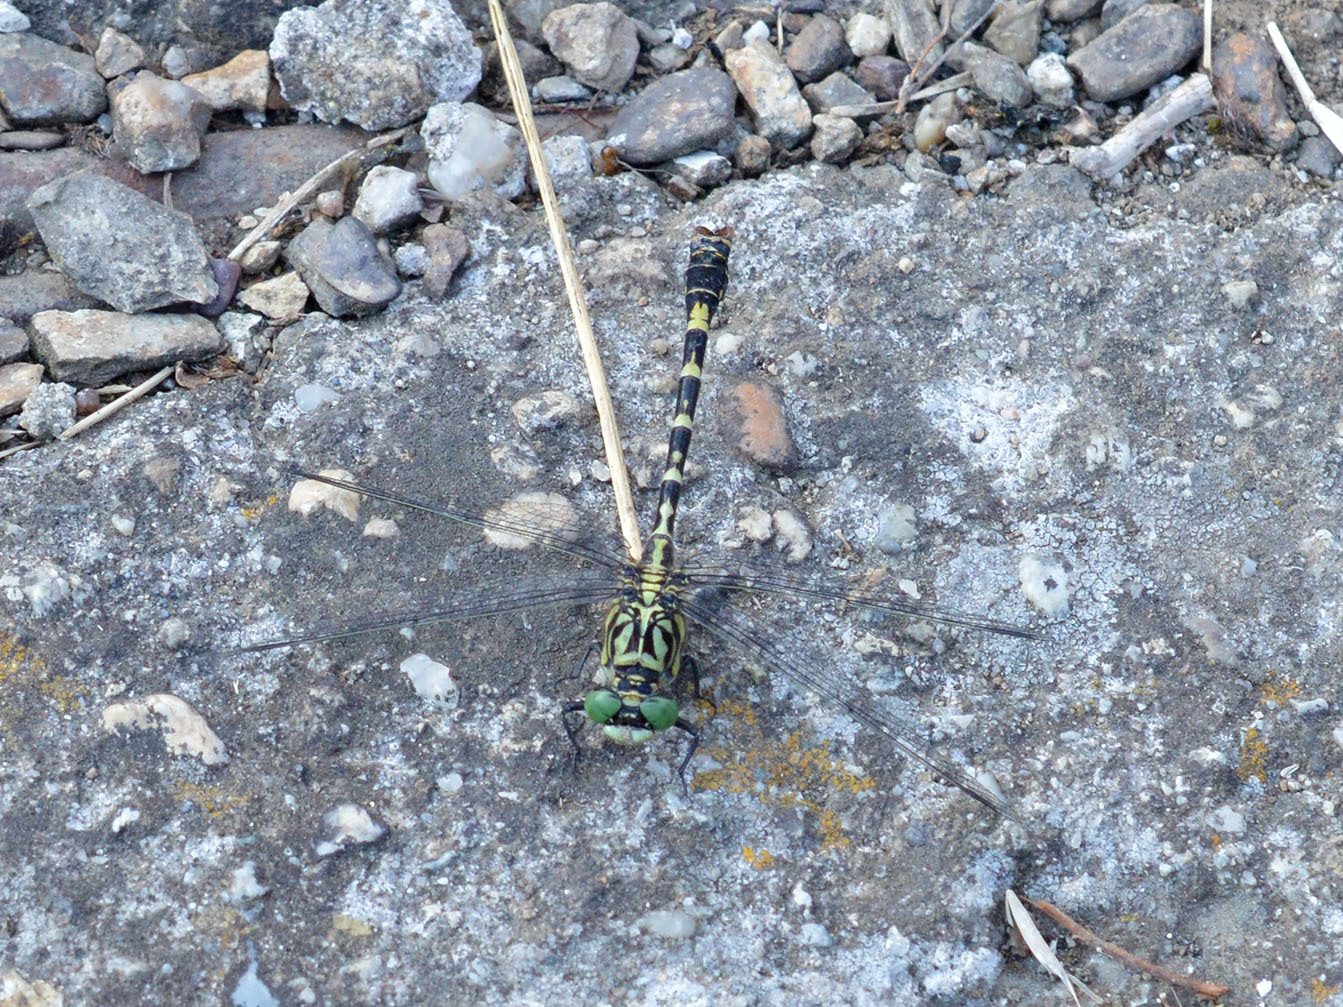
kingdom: Animalia
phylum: Arthropoda
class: Insecta
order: Odonata
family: Gomphidae
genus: Onychogomphus
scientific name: Onychogomphus forcipatus
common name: Small pincertail
